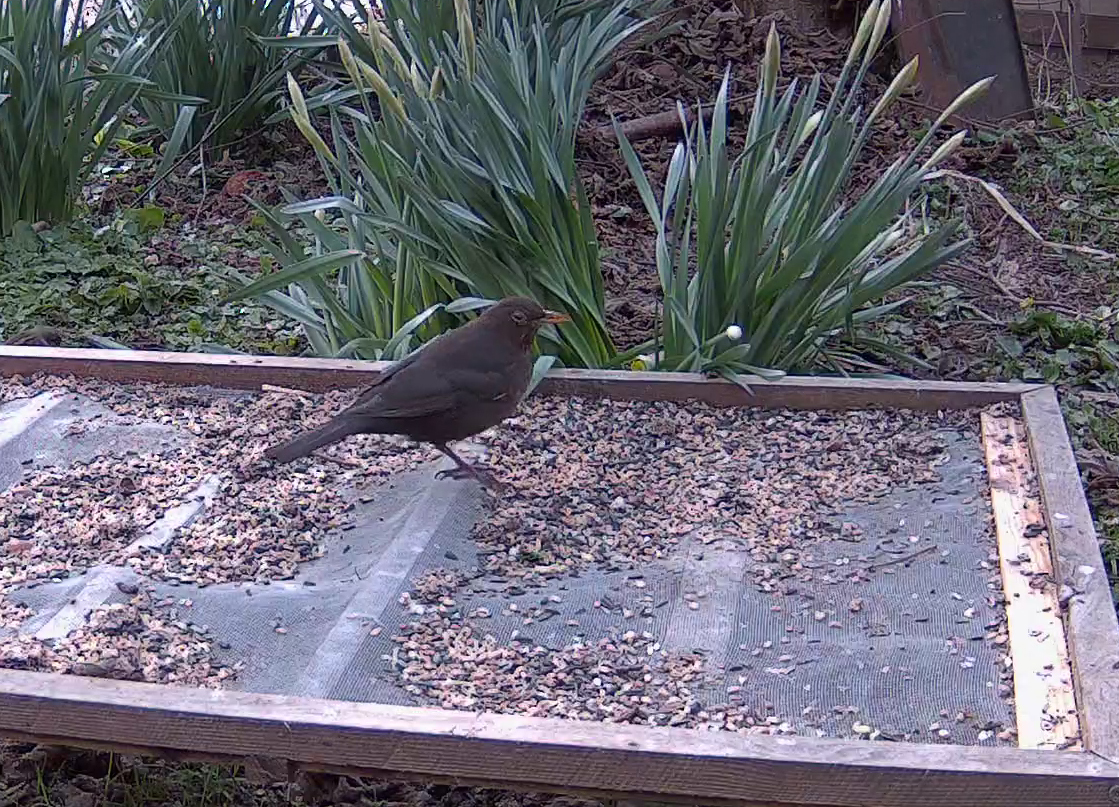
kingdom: Animalia
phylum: Chordata
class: Aves
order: Passeriformes
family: Turdidae
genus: Turdus
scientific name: Turdus merula
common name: Common blackbird
